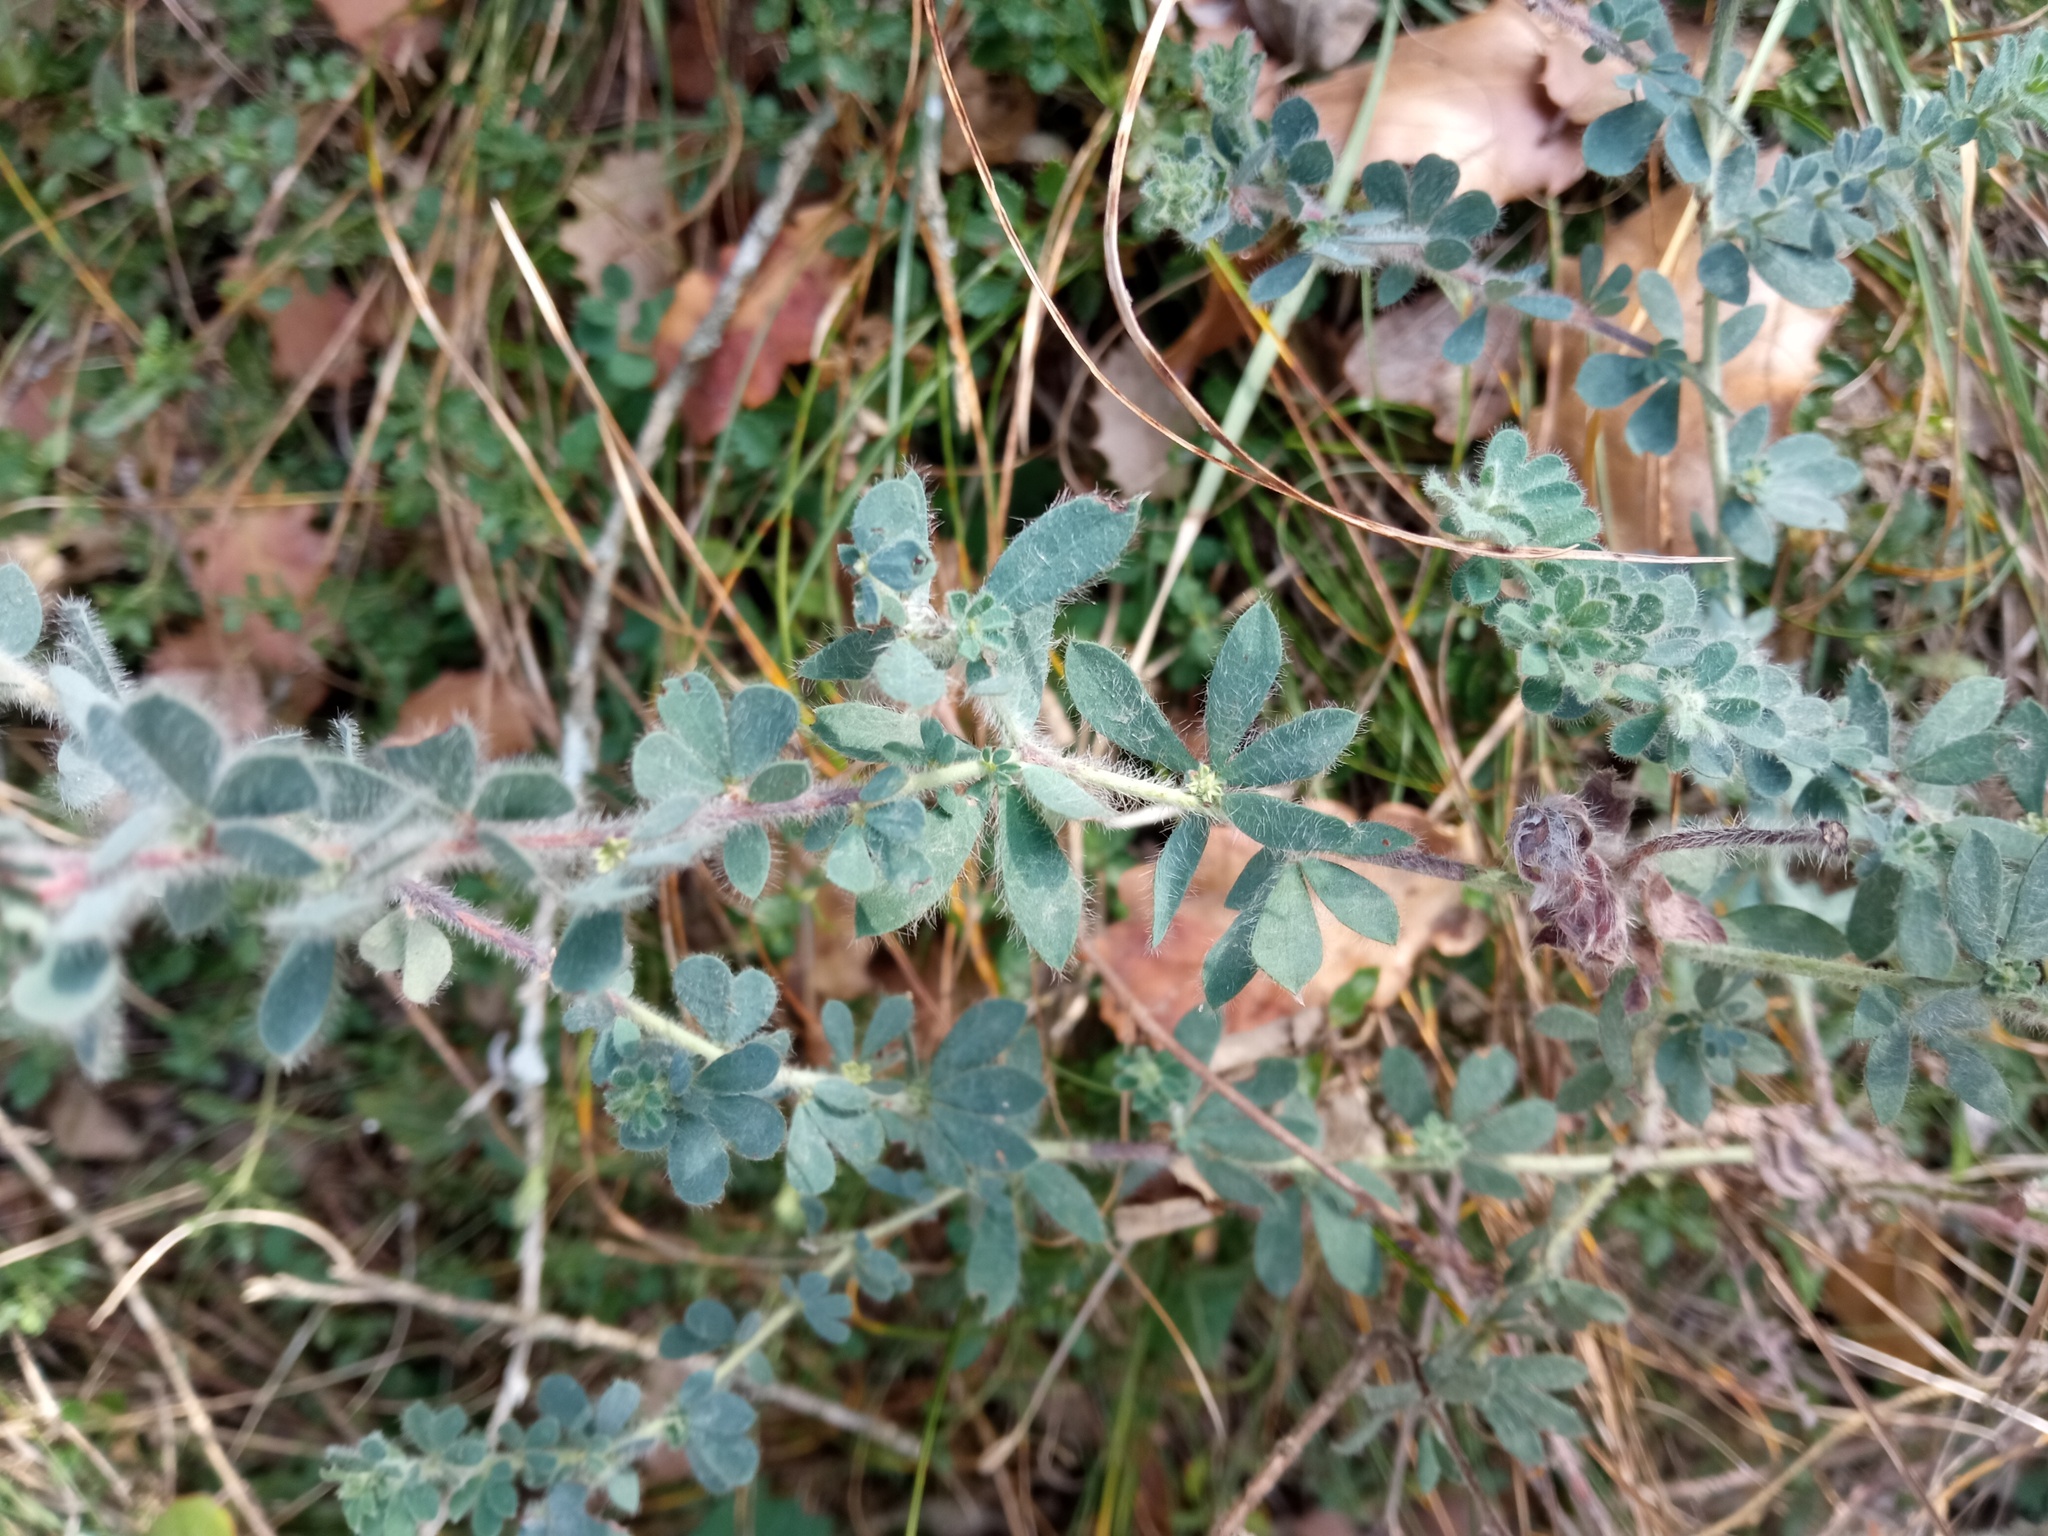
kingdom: Plantae
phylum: Tracheophyta
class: Magnoliopsida
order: Fabales
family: Fabaceae
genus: Lotus
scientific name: Lotus hirsutus
